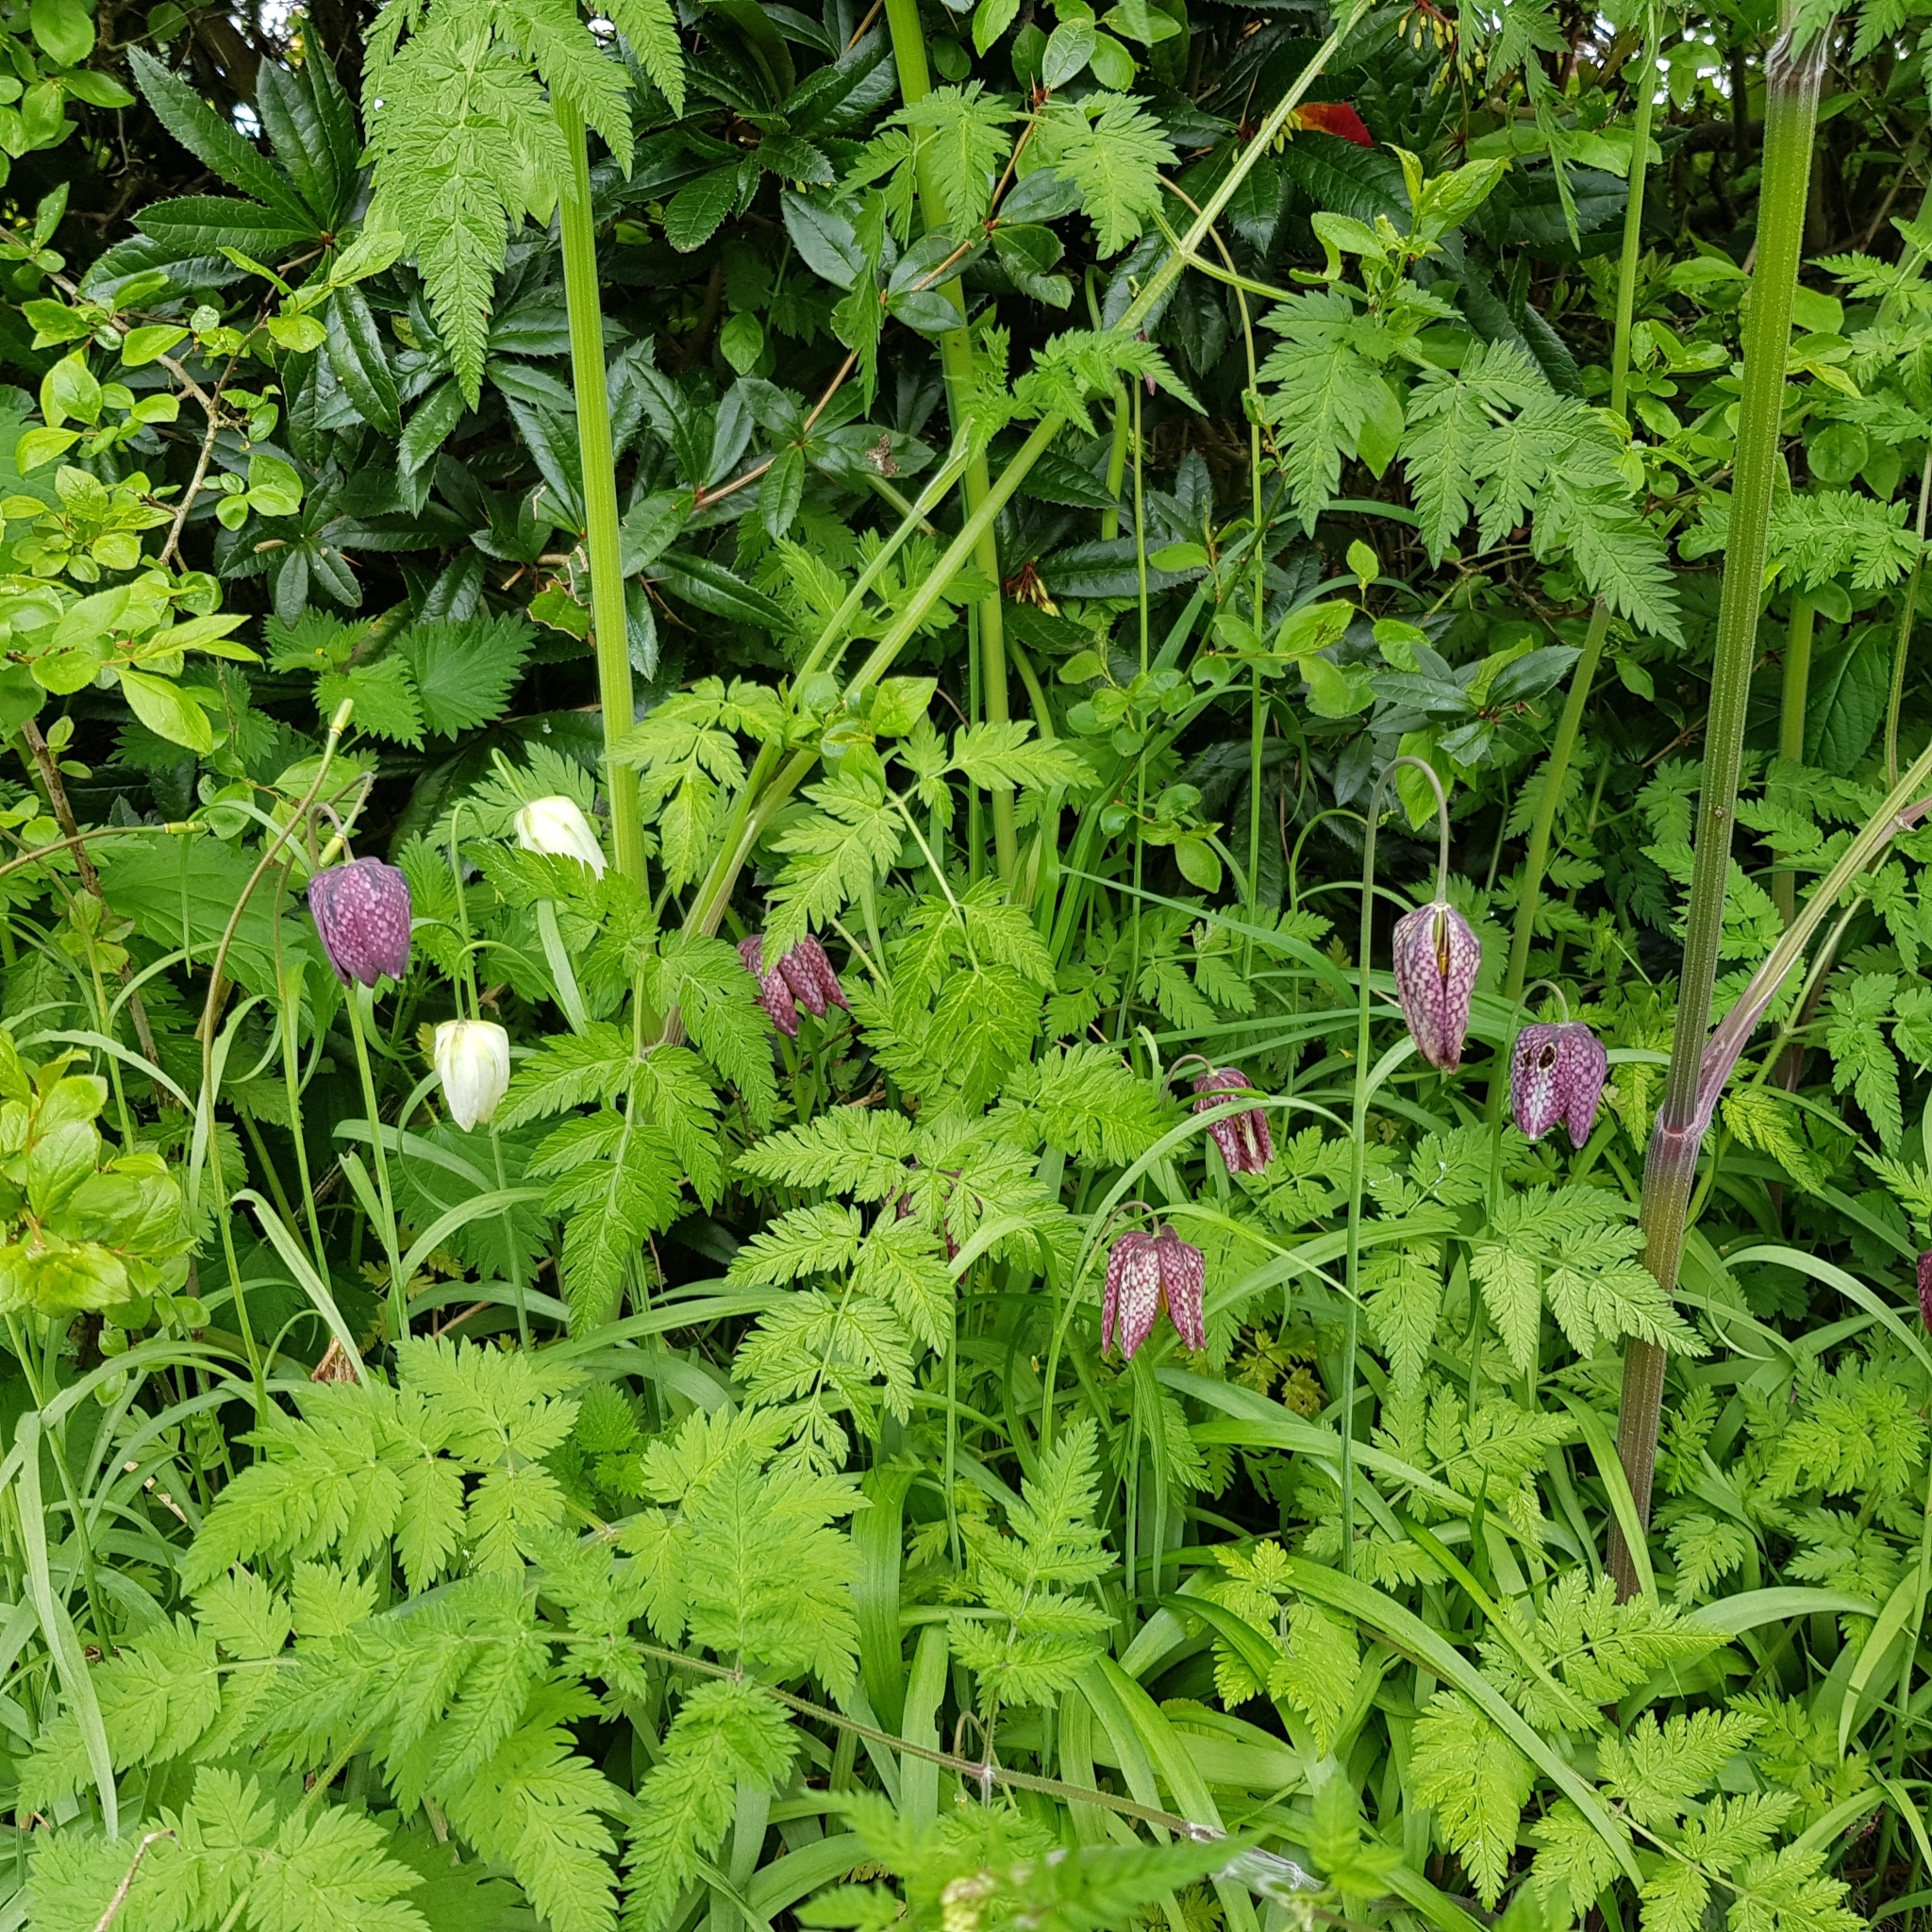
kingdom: Plantae
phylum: Tracheophyta
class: Liliopsida
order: Liliales
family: Liliaceae
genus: Fritillaria
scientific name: Fritillaria meleagris
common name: Fritillary
